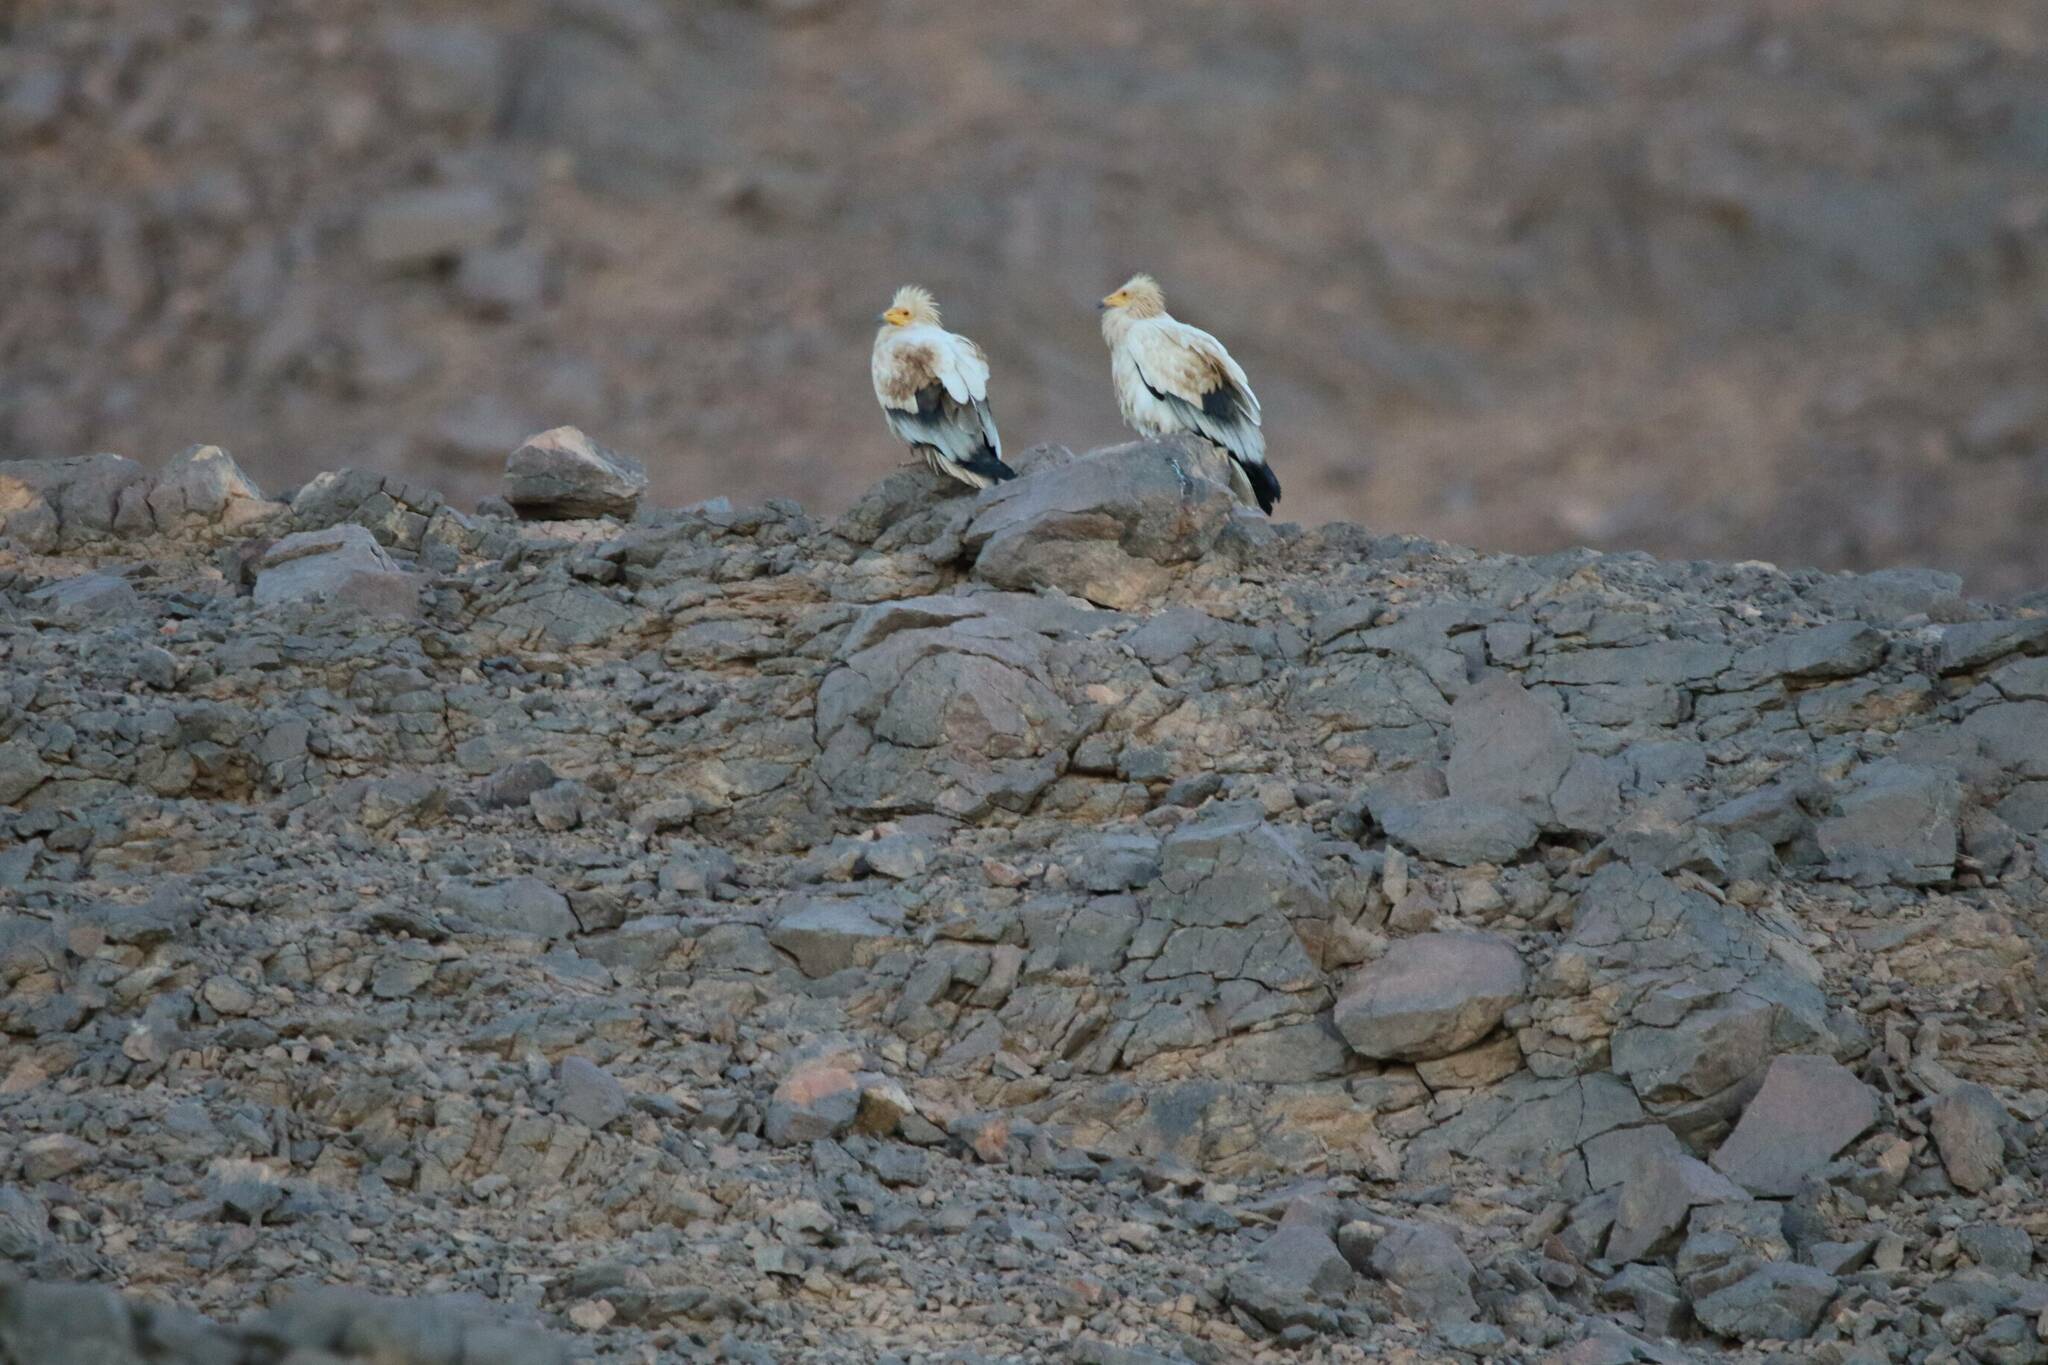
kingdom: Animalia
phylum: Chordata
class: Aves
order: Accipitriformes
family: Accipitridae
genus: Neophron
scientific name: Neophron percnopterus
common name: Egyptian vulture
